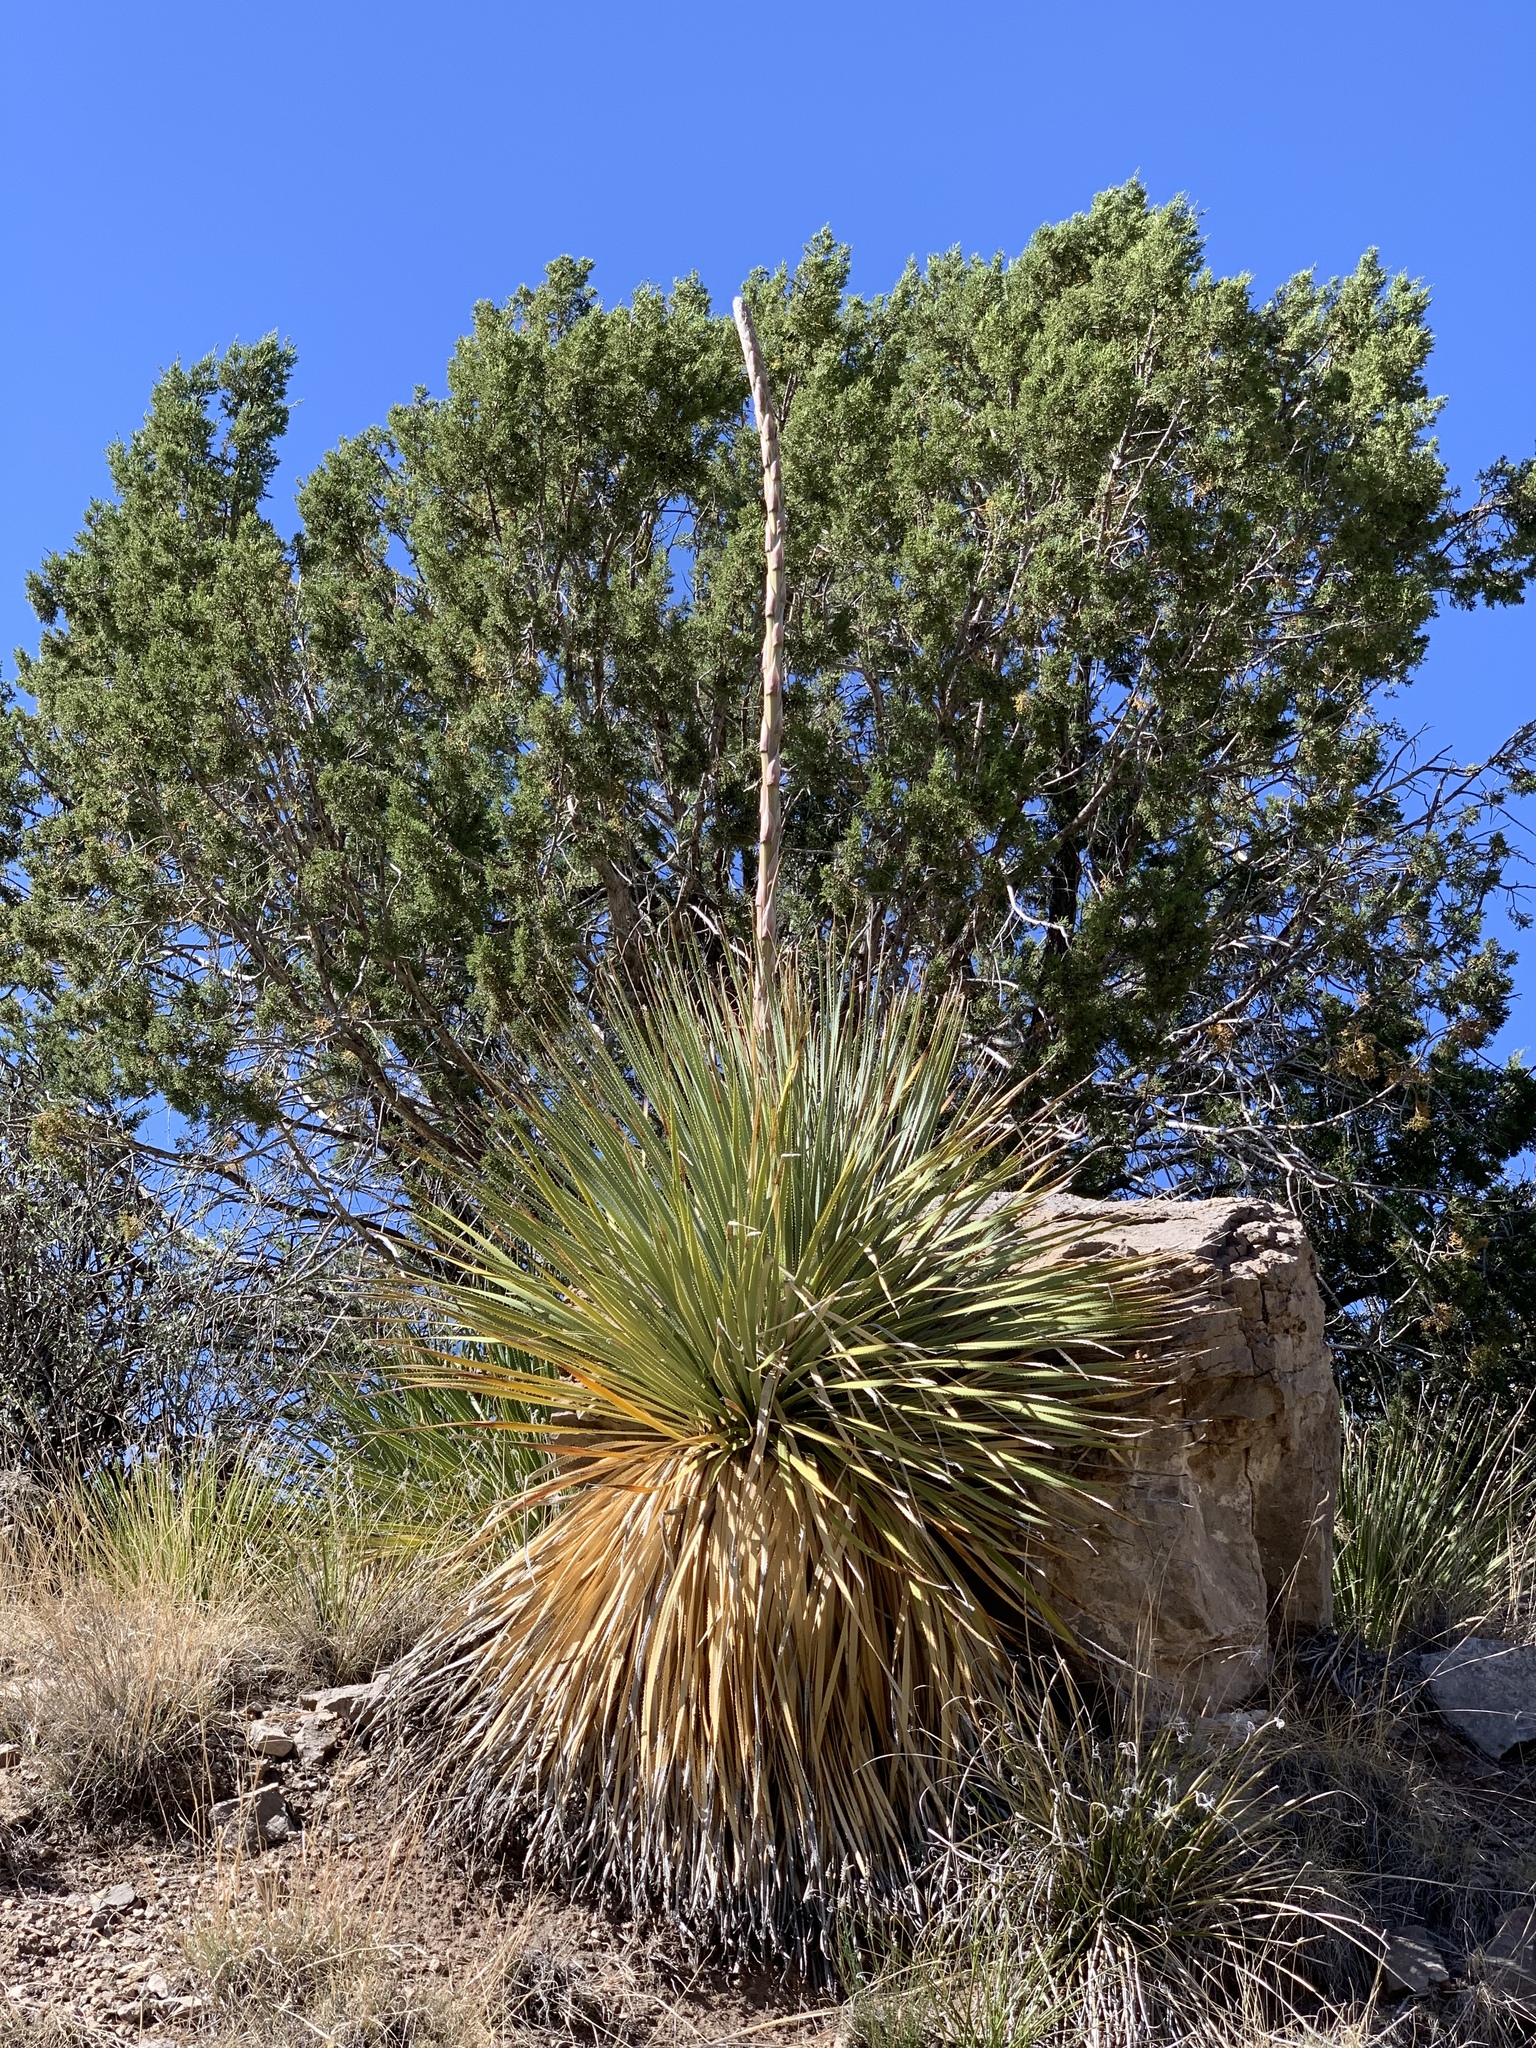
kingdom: Plantae
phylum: Tracheophyta
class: Liliopsida
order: Asparagales
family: Asparagaceae
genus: Dasylirion
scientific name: Dasylirion wheeleri
